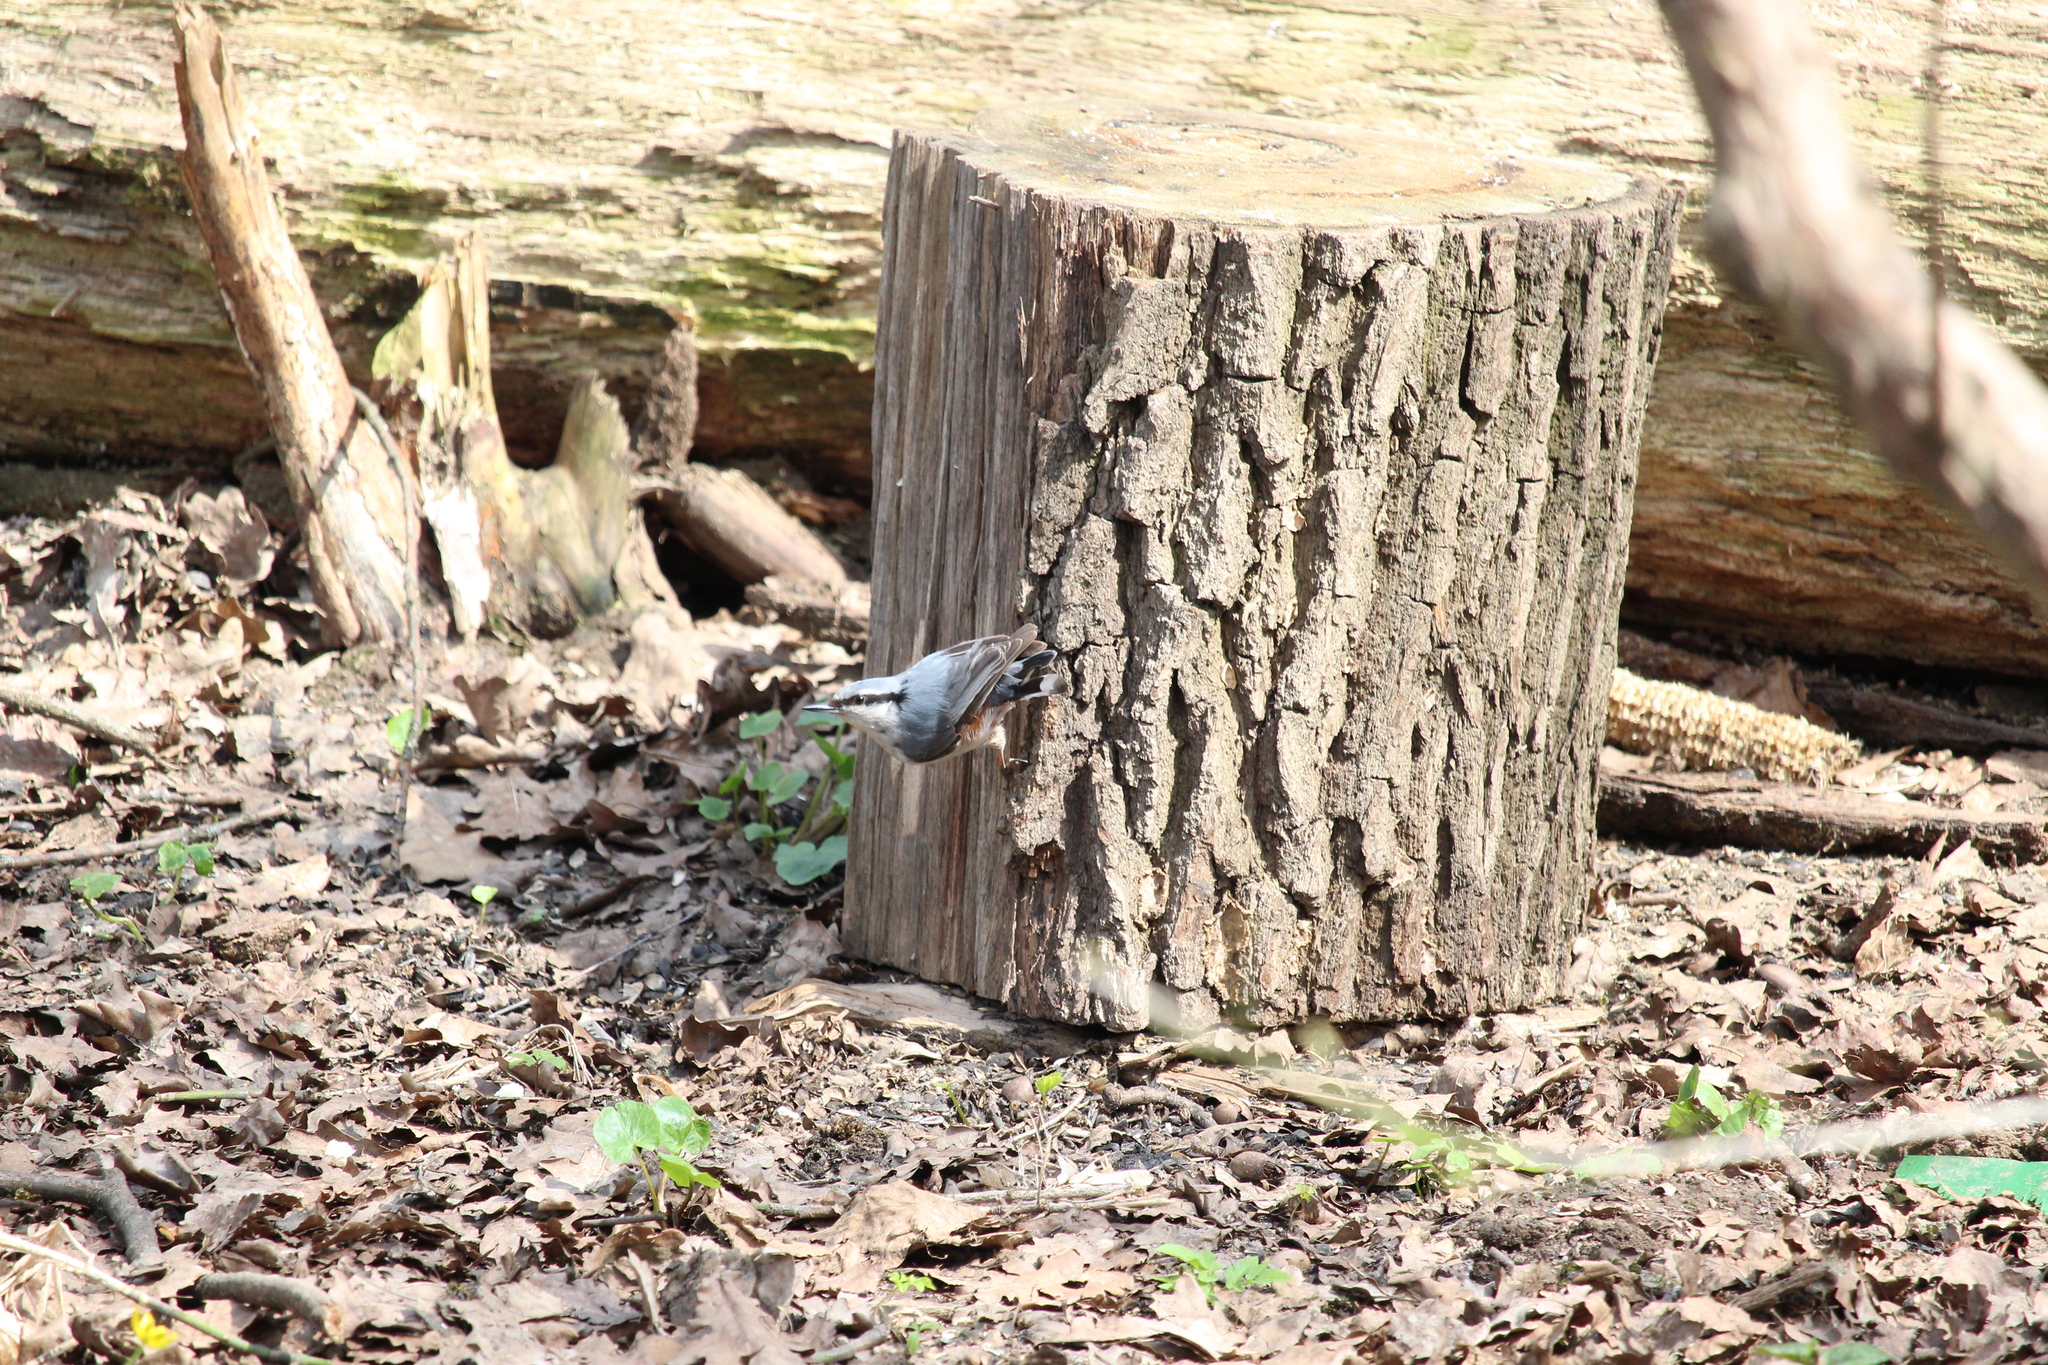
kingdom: Animalia
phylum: Chordata
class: Aves
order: Passeriformes
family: Sittidae
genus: Sitta
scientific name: Sitta europaea
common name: Eurasian nuthatch
